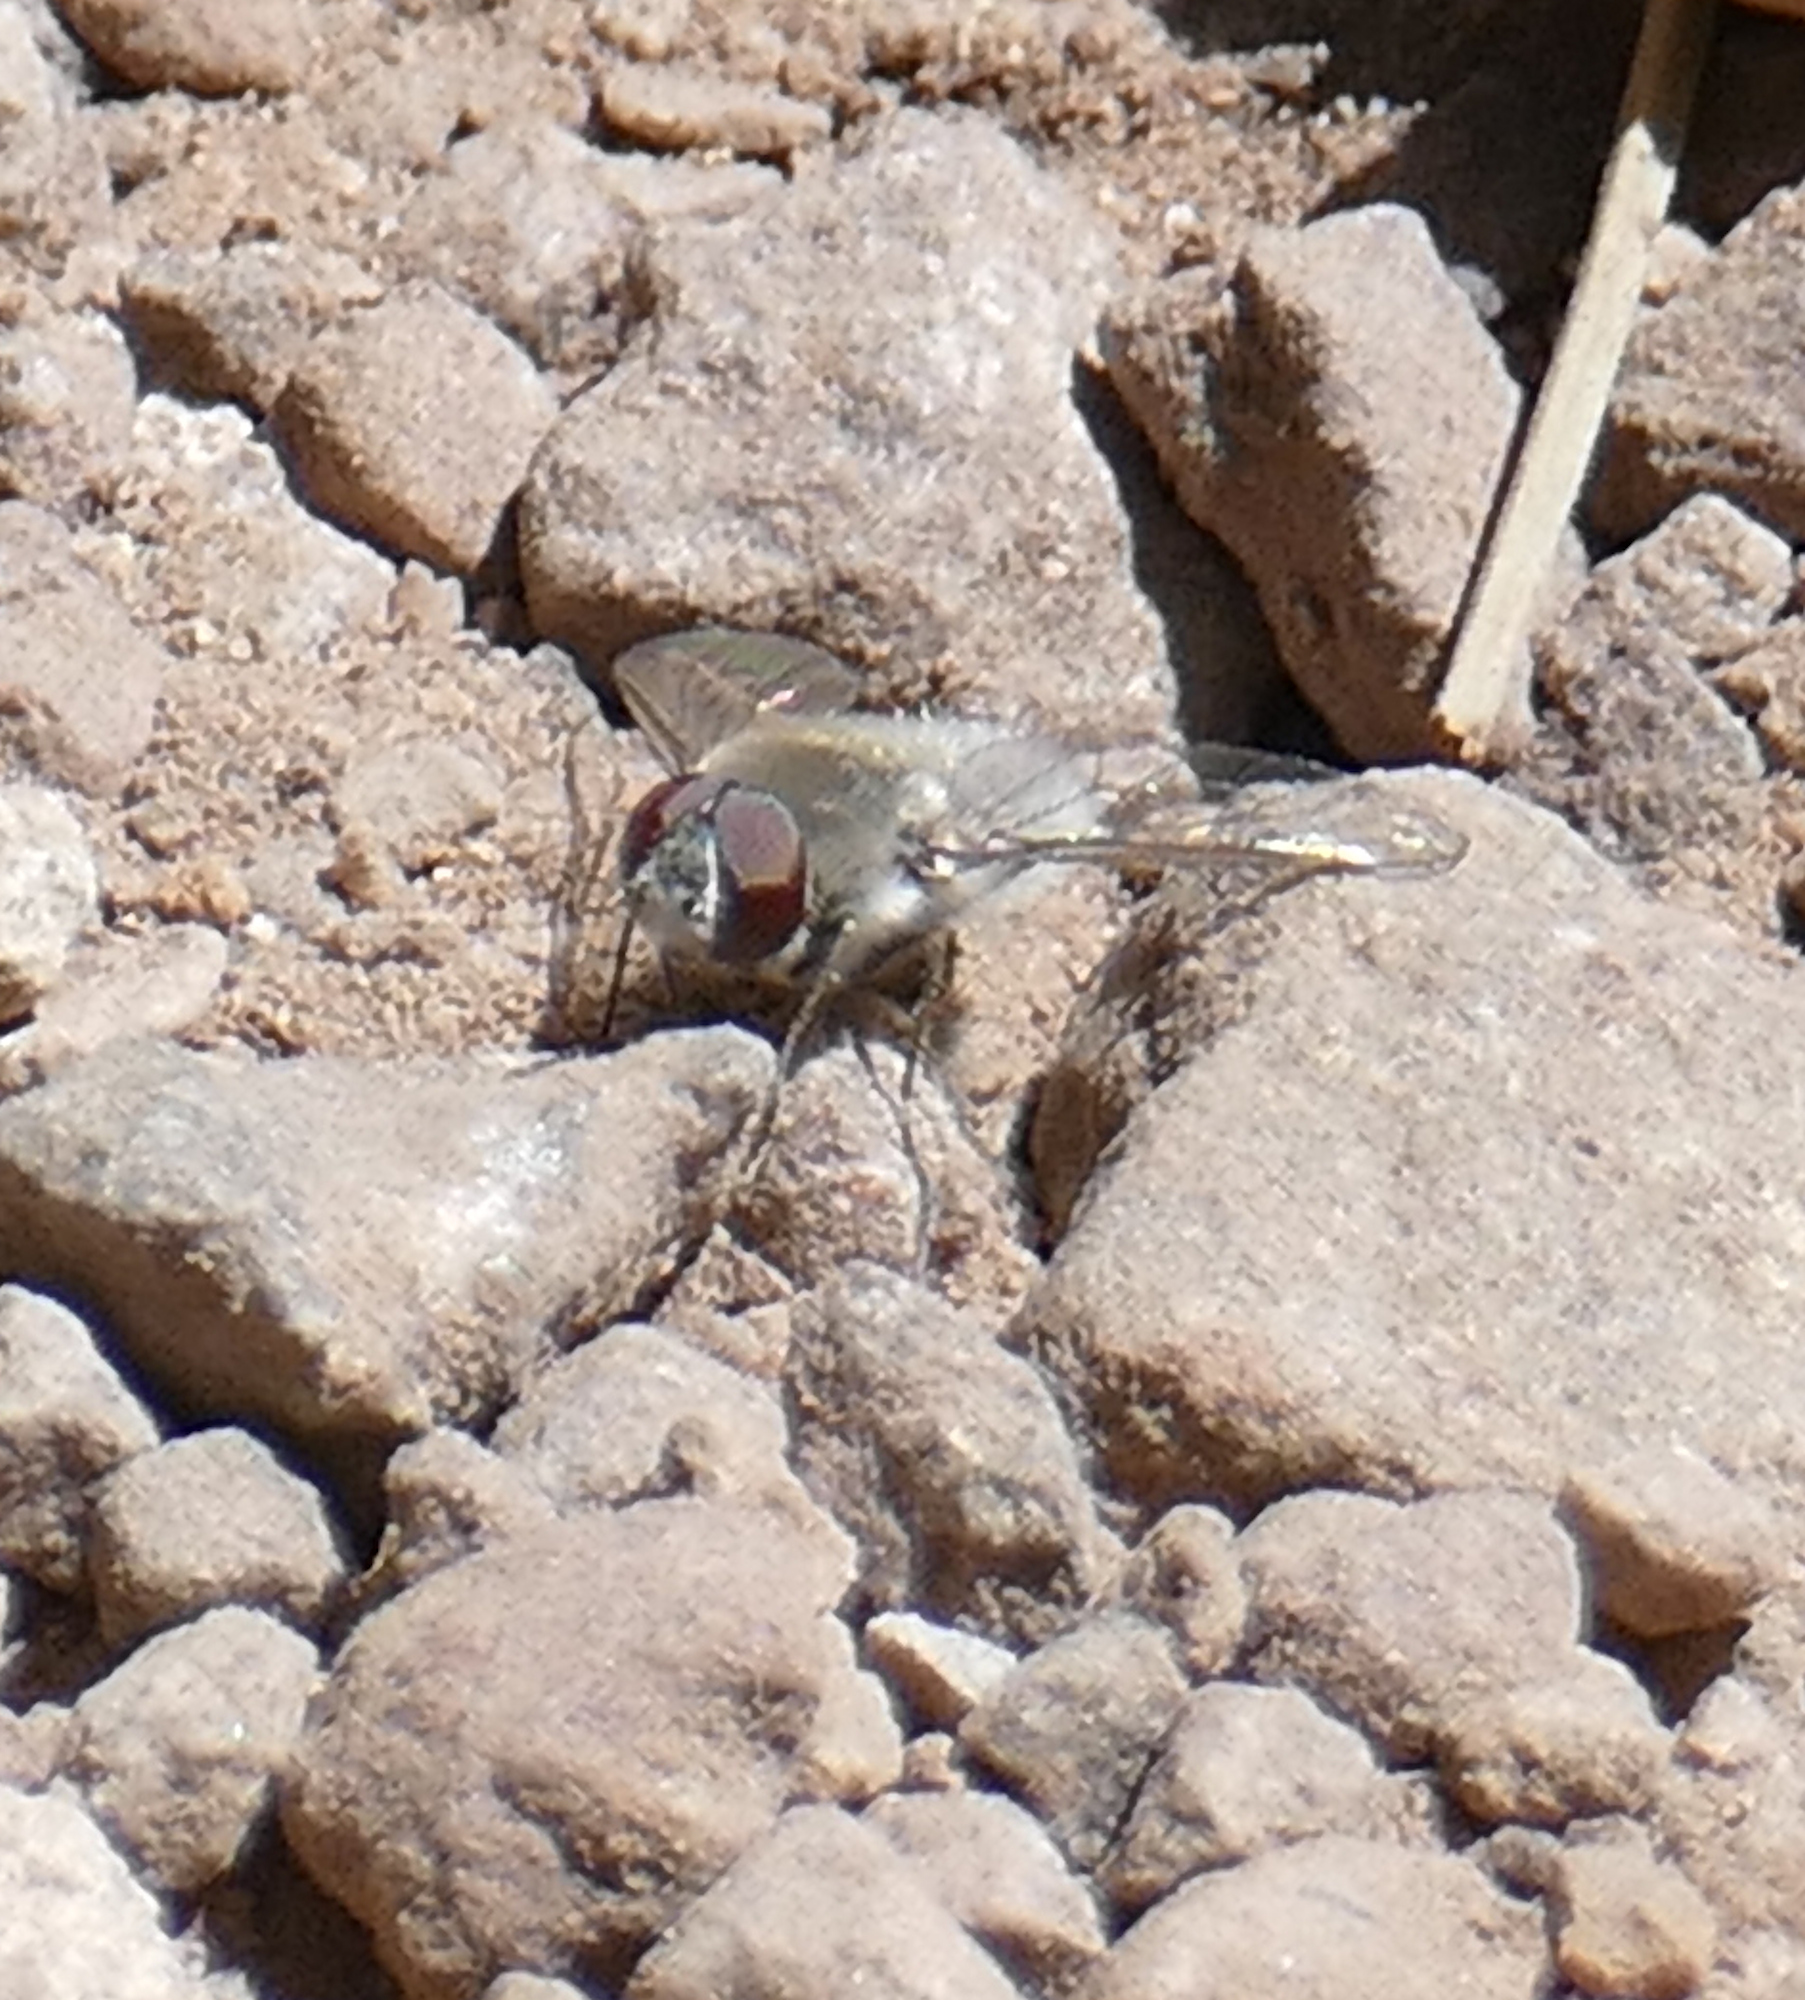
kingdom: Animalia
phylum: Arthropoda
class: Insecta
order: Diptera
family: Bombyliidae
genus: Aphoebantus
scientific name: Aphoebantus mus
